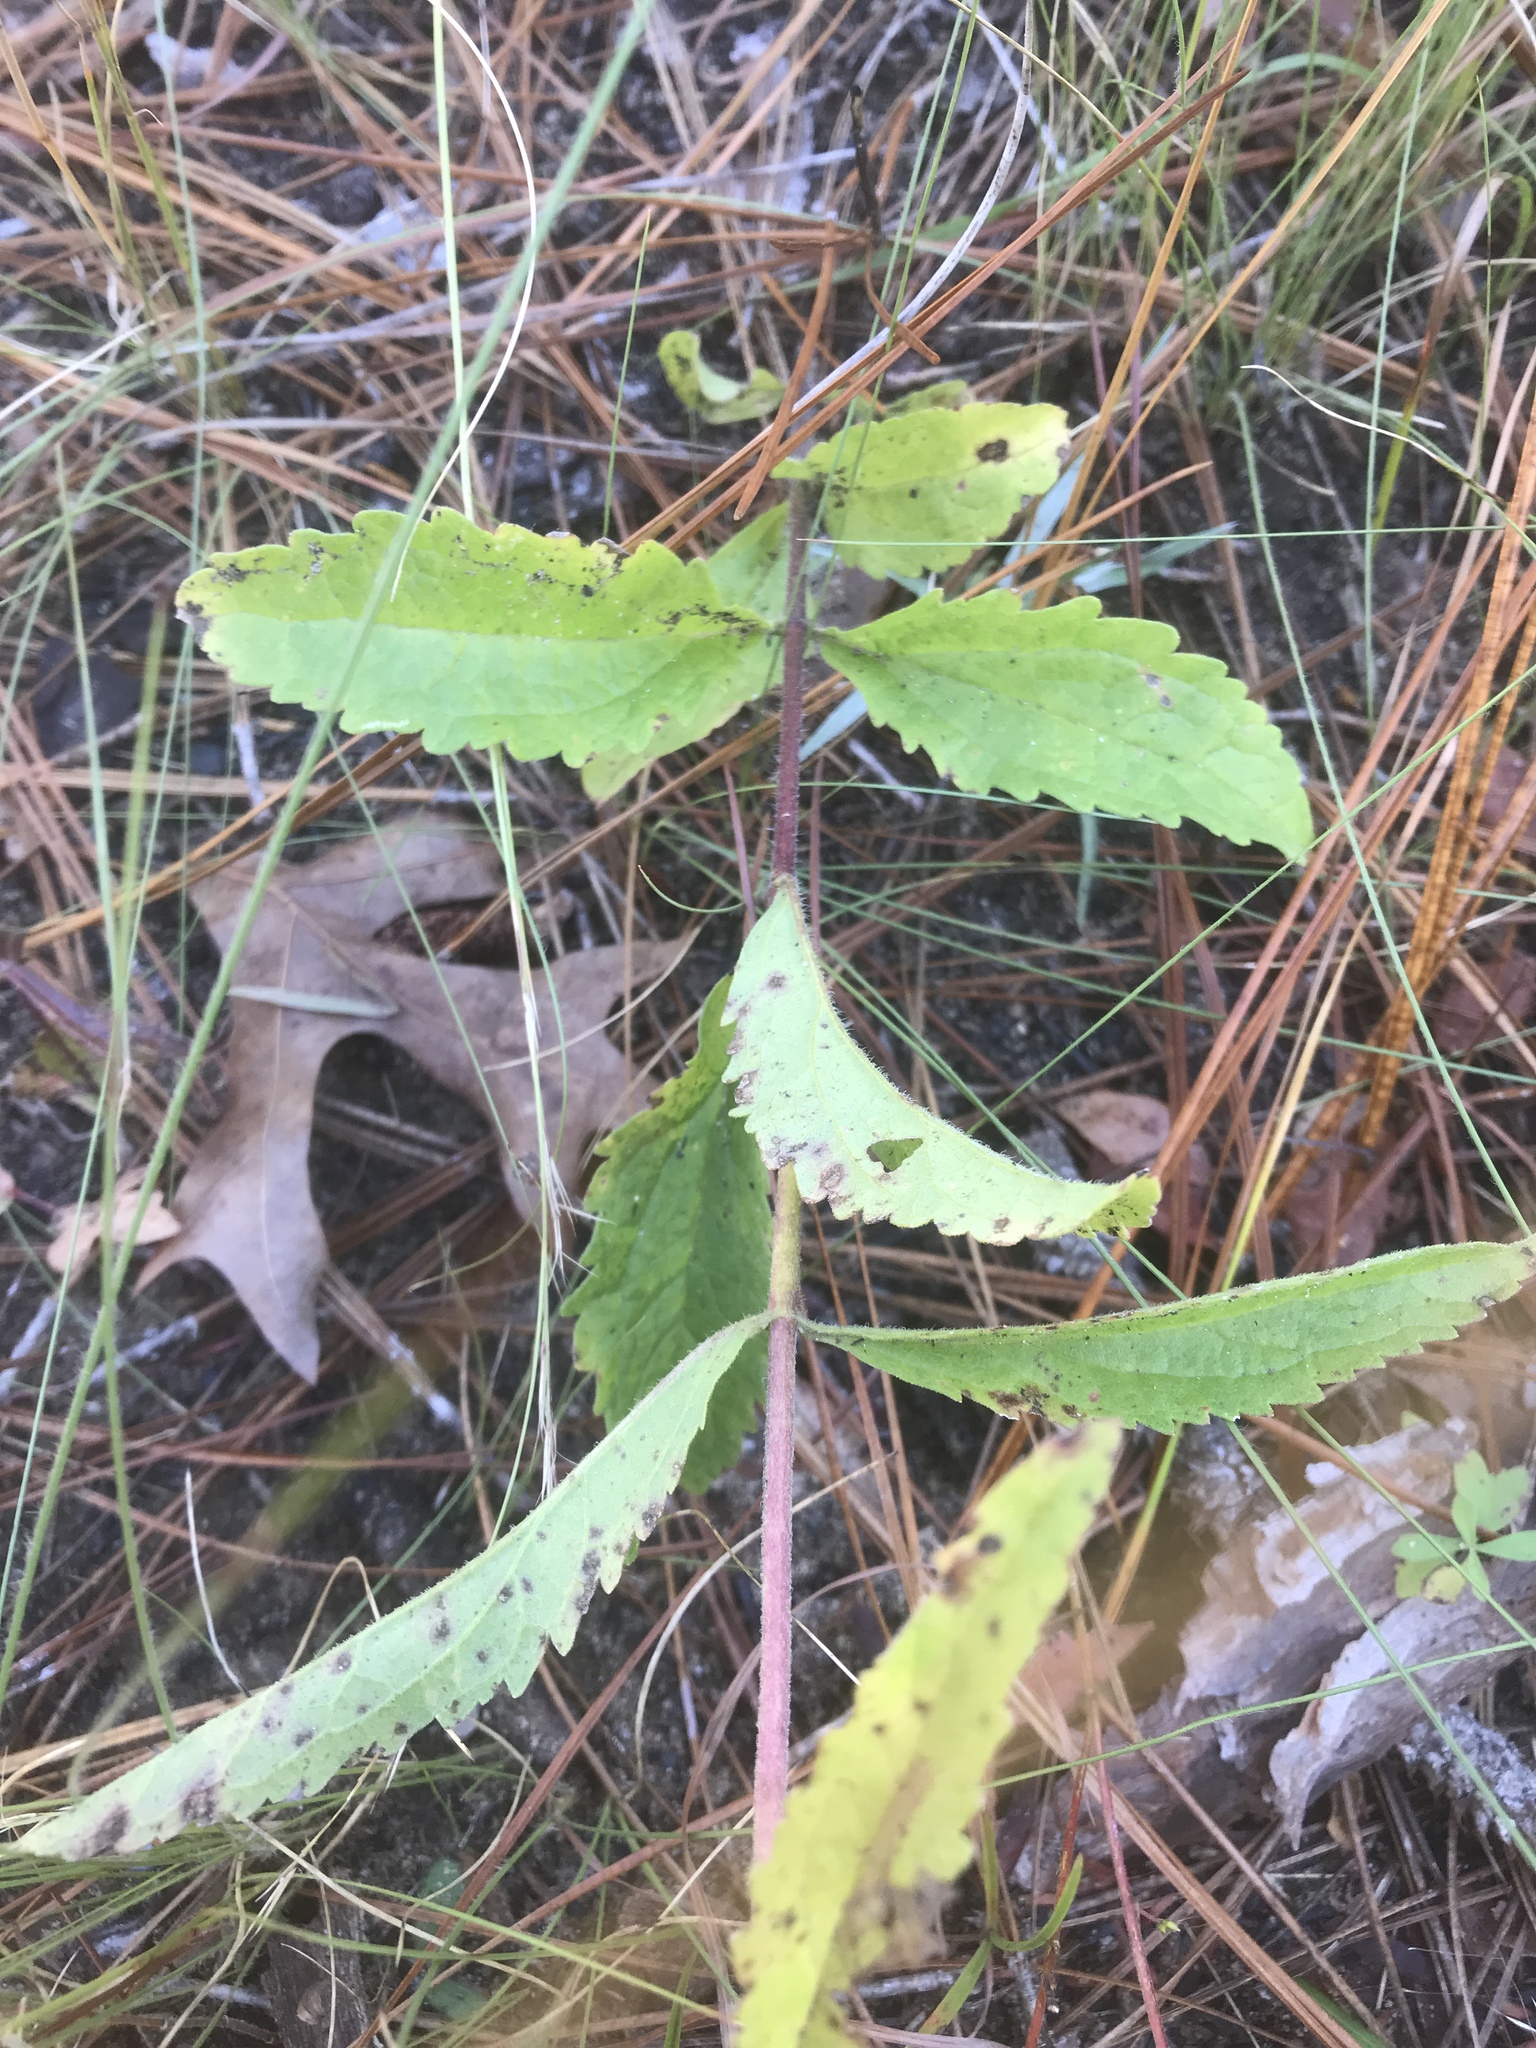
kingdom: Plantae
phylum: Tracheophyta
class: Magnoliopsida
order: Asterales
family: Asteraceae
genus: Eupatorium
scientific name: Eupatorium album
